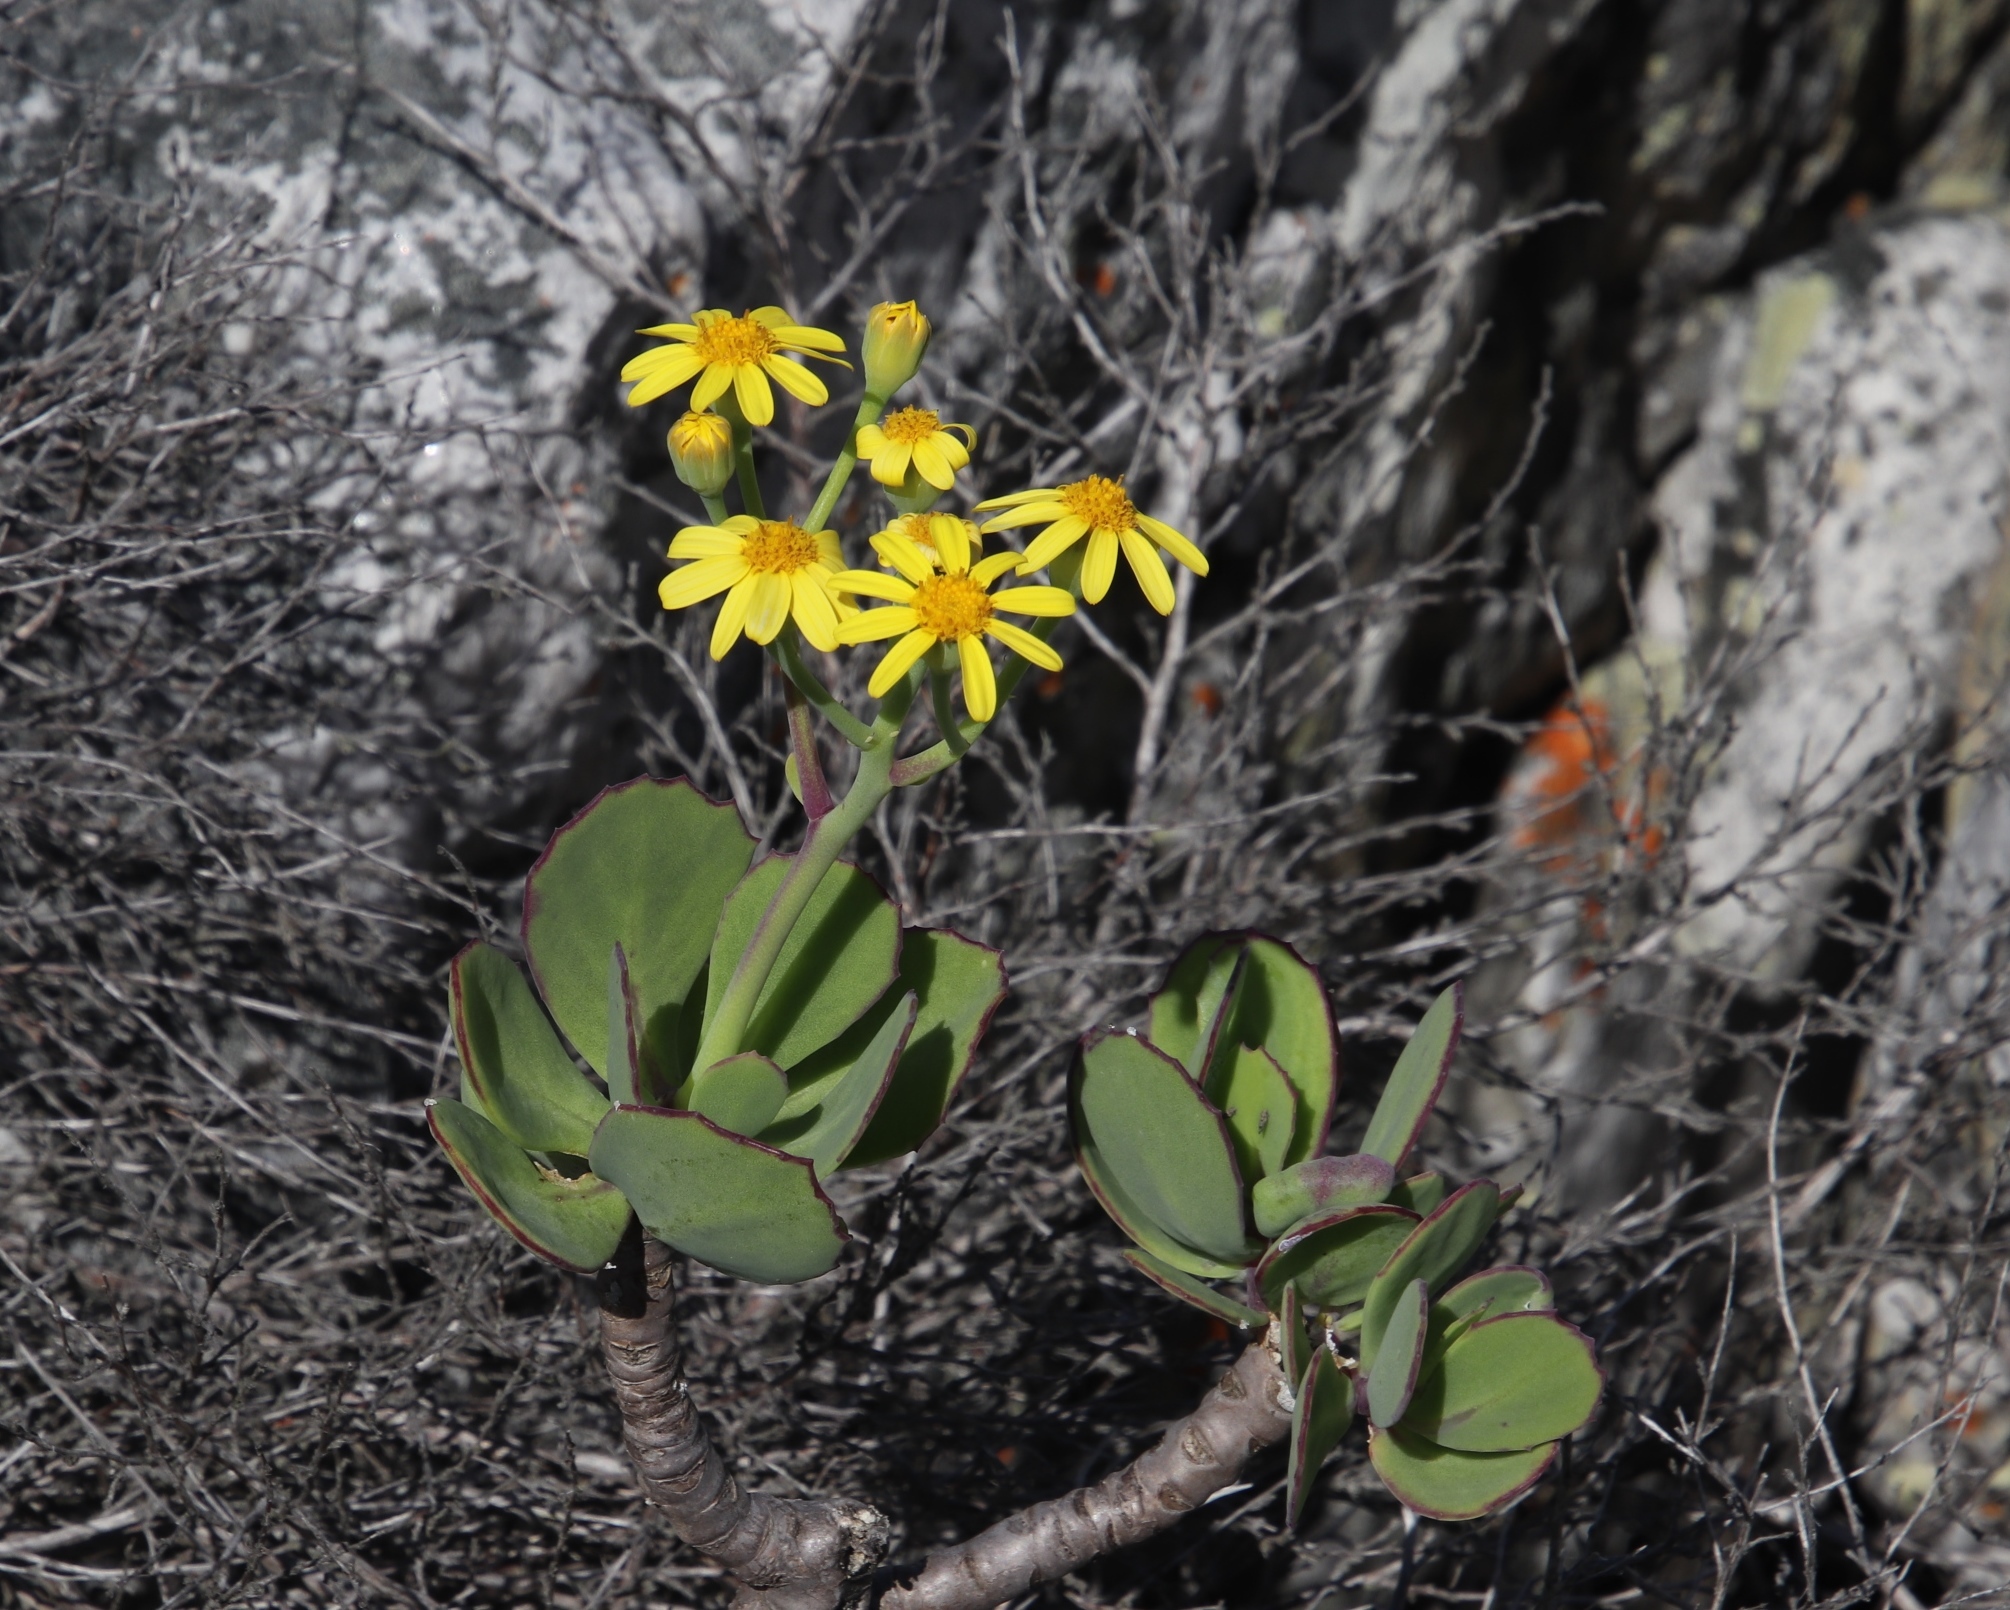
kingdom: Plantae
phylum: Tracheophyta
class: Magnoliopsida
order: Asterales
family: Asteraceae
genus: Othonna
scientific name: Othonna dentata
